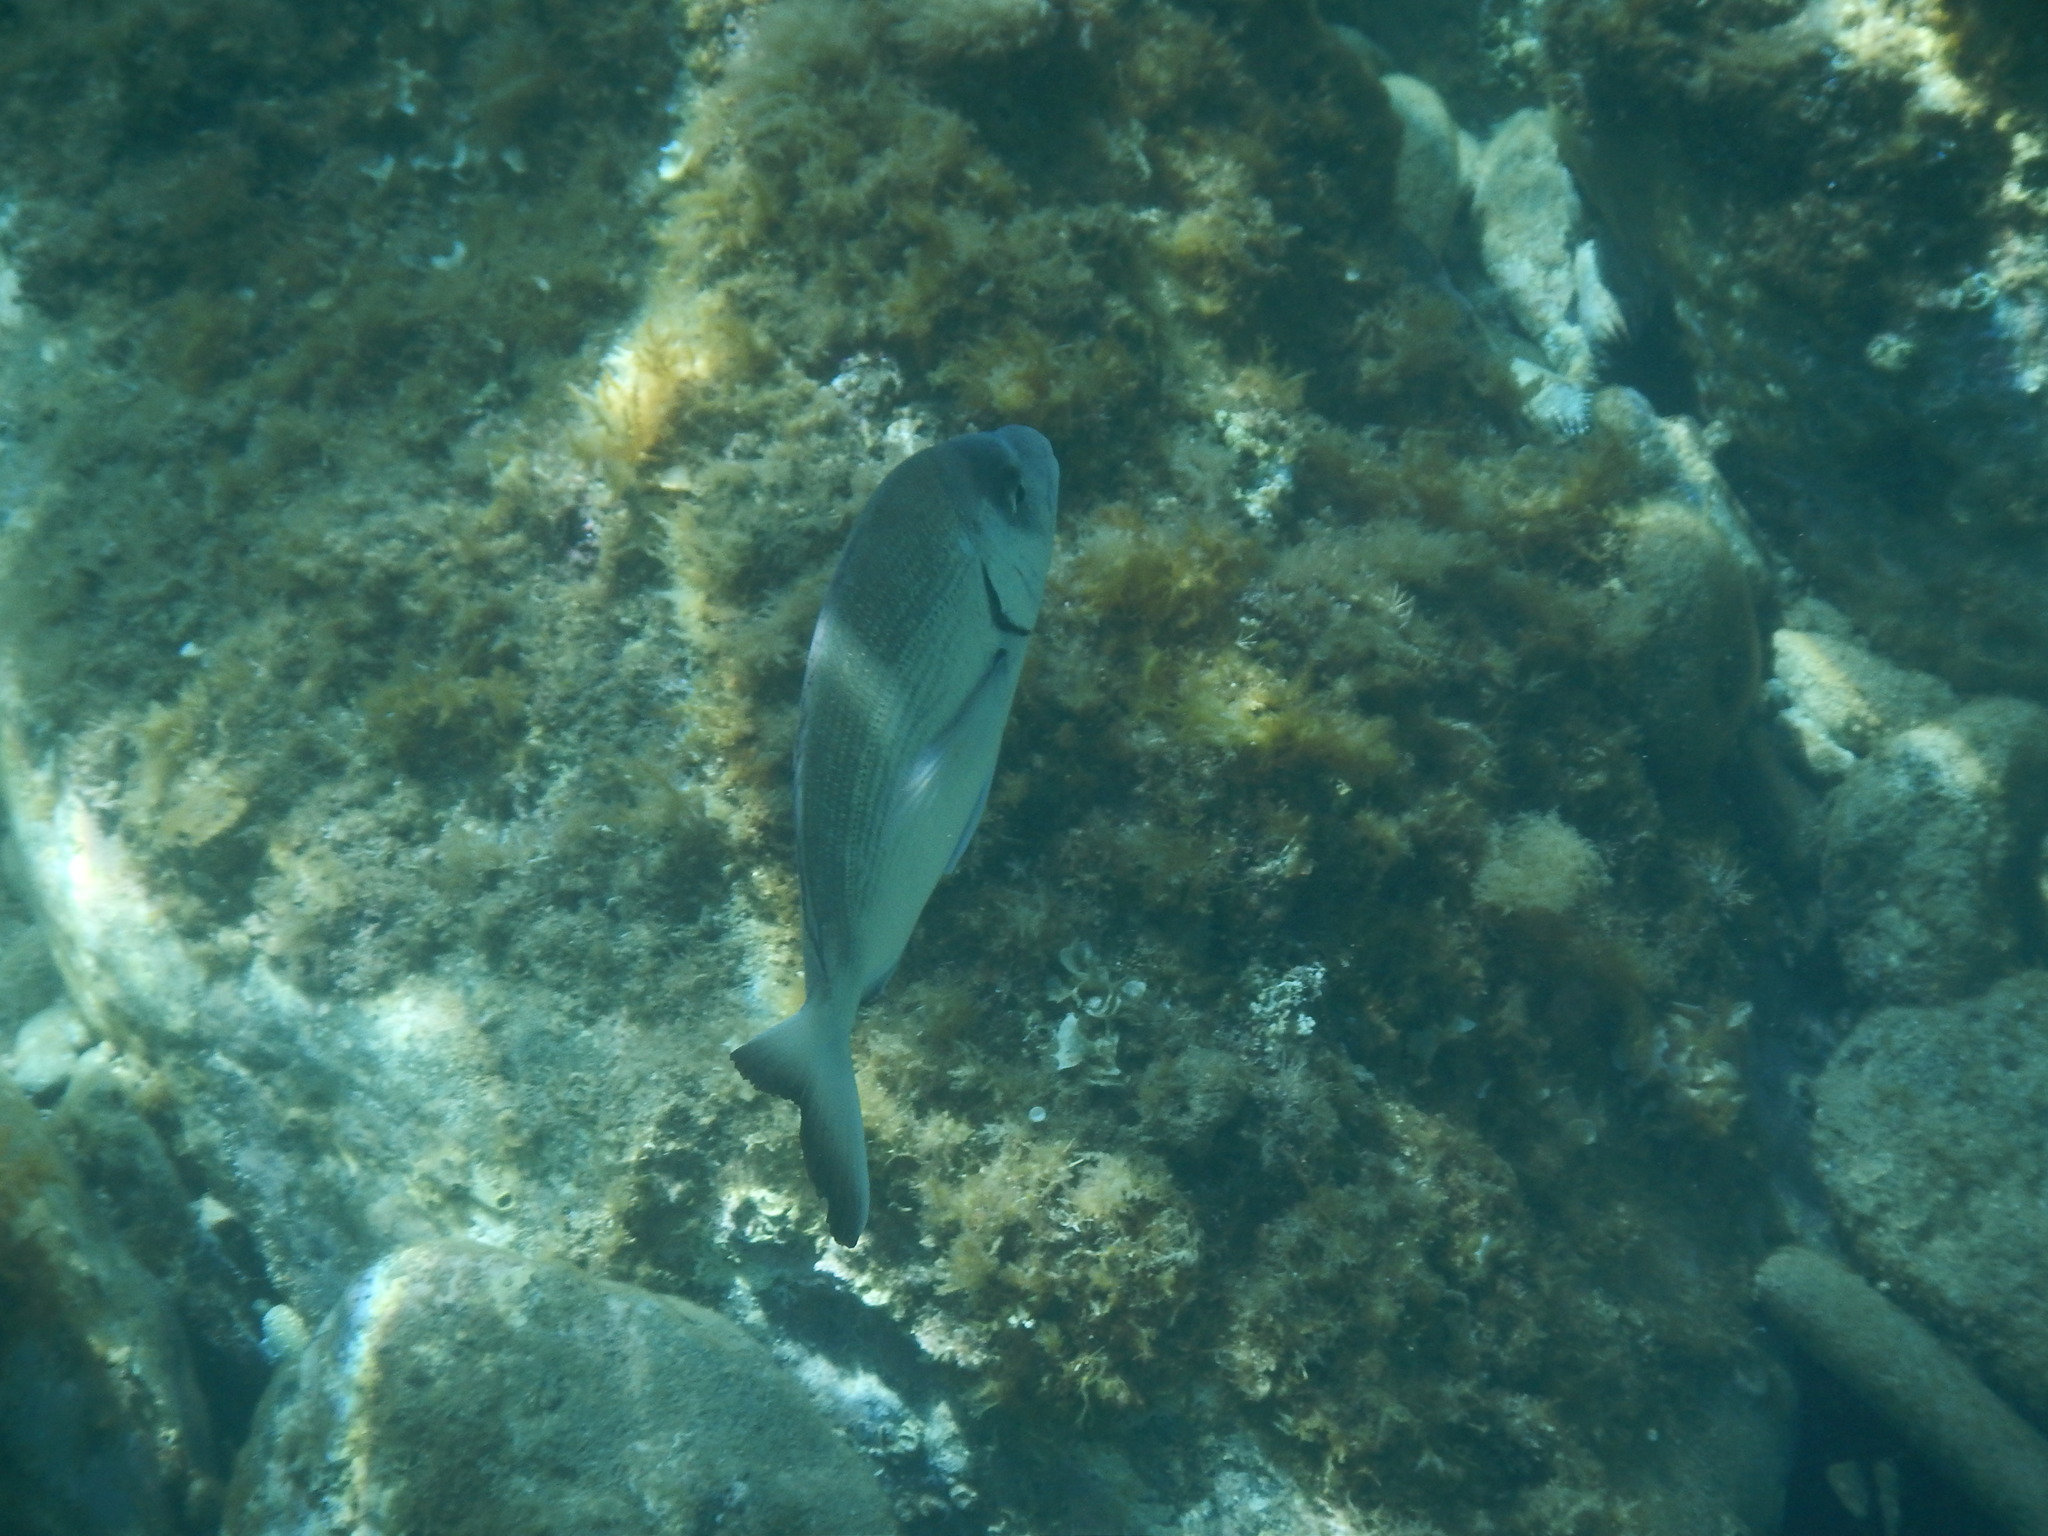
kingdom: Animalia
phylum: Chordata
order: Perciformes
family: Sparidae
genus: Diplodus
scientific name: Diplodus sargus
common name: White seabream
